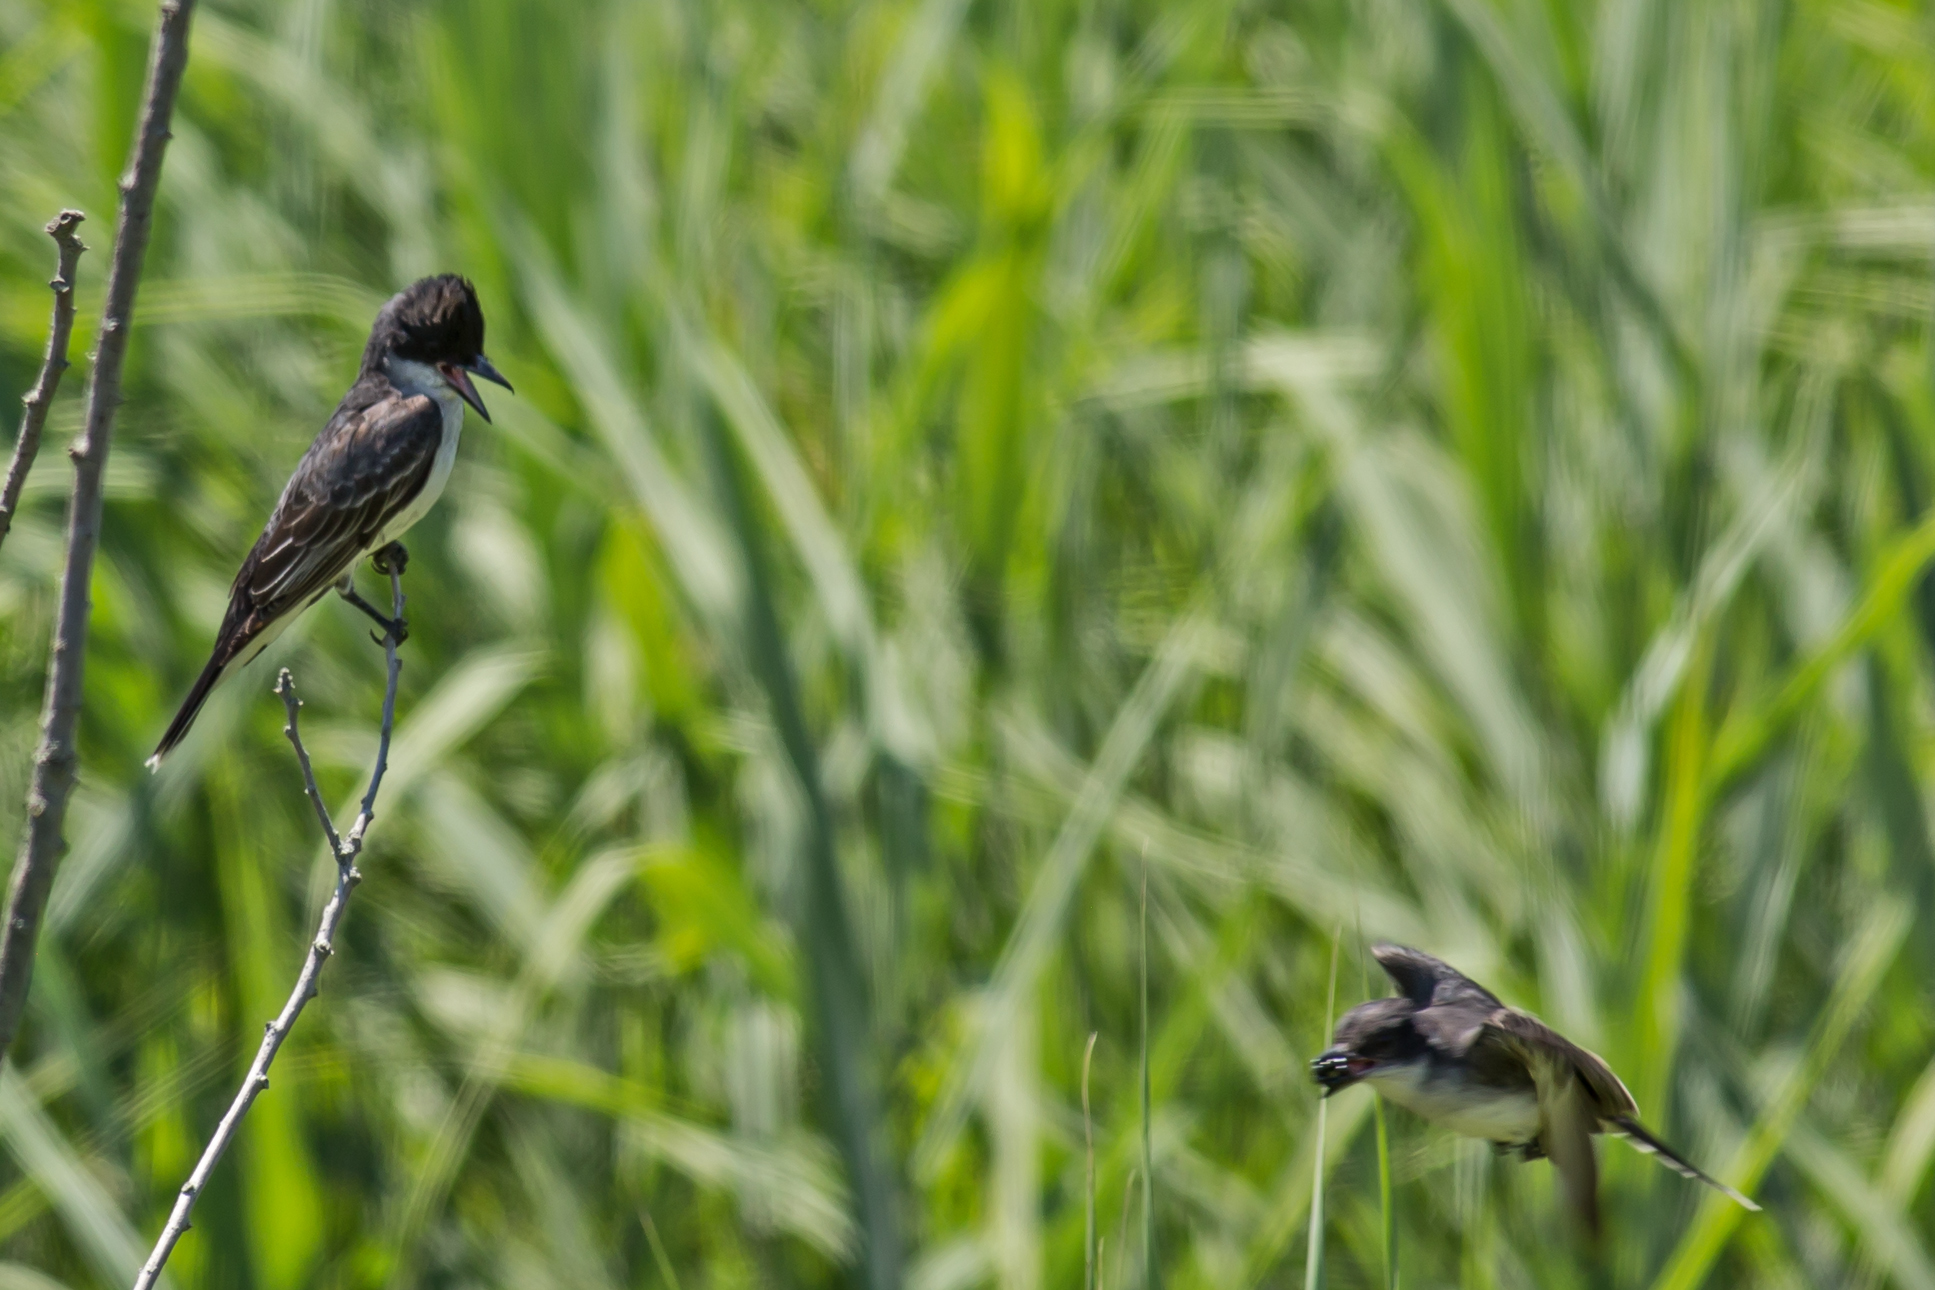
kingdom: Animalia
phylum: Chordata
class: Aves
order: Passeriformes
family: Tyrannidae
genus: Tyrannus
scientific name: Tyrannus tyrannus
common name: Eastern kingbird
